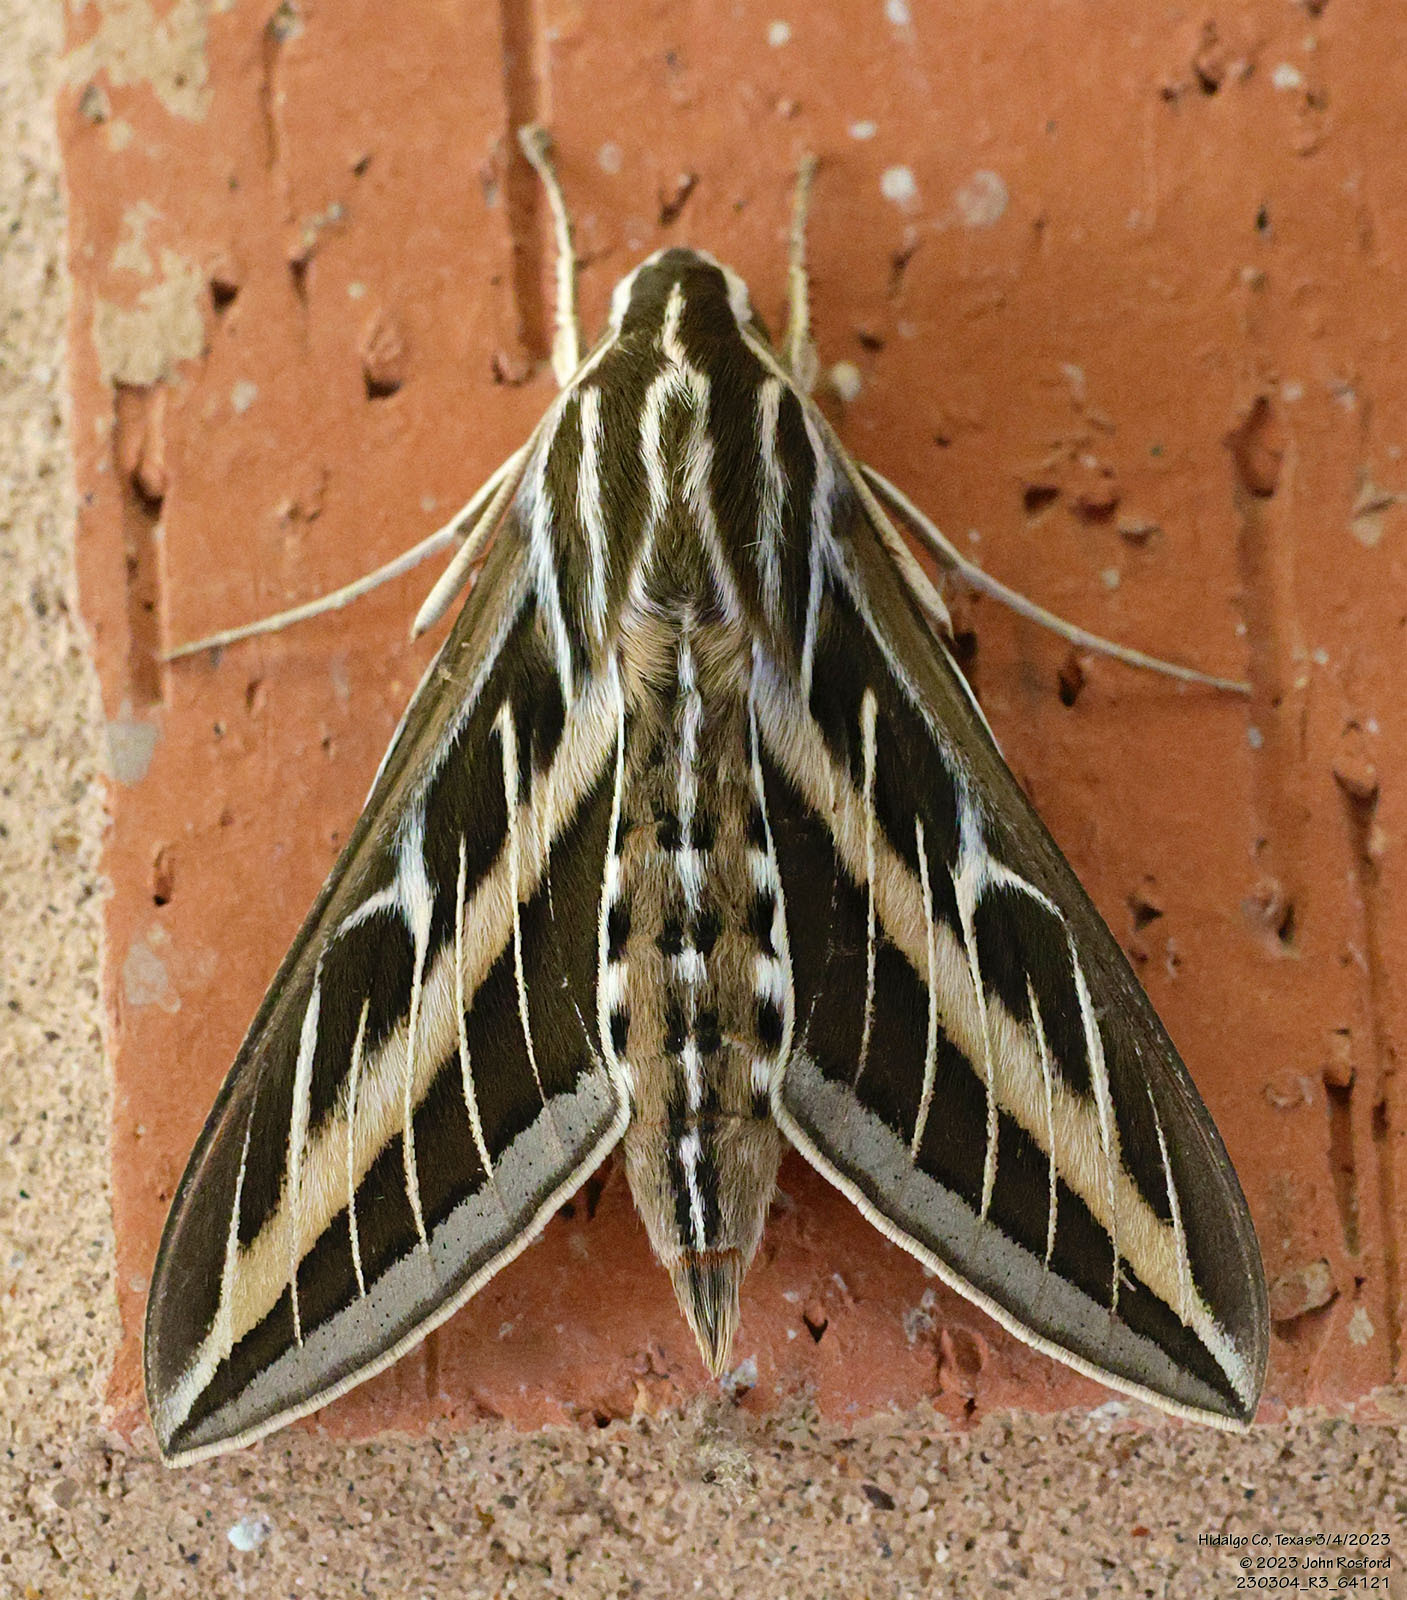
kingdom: Animalia
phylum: Arthropoda
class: Insecta
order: Lepidoptera
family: Sphingidae
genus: Hyles
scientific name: Hyles lineata
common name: White-lined sphinx
